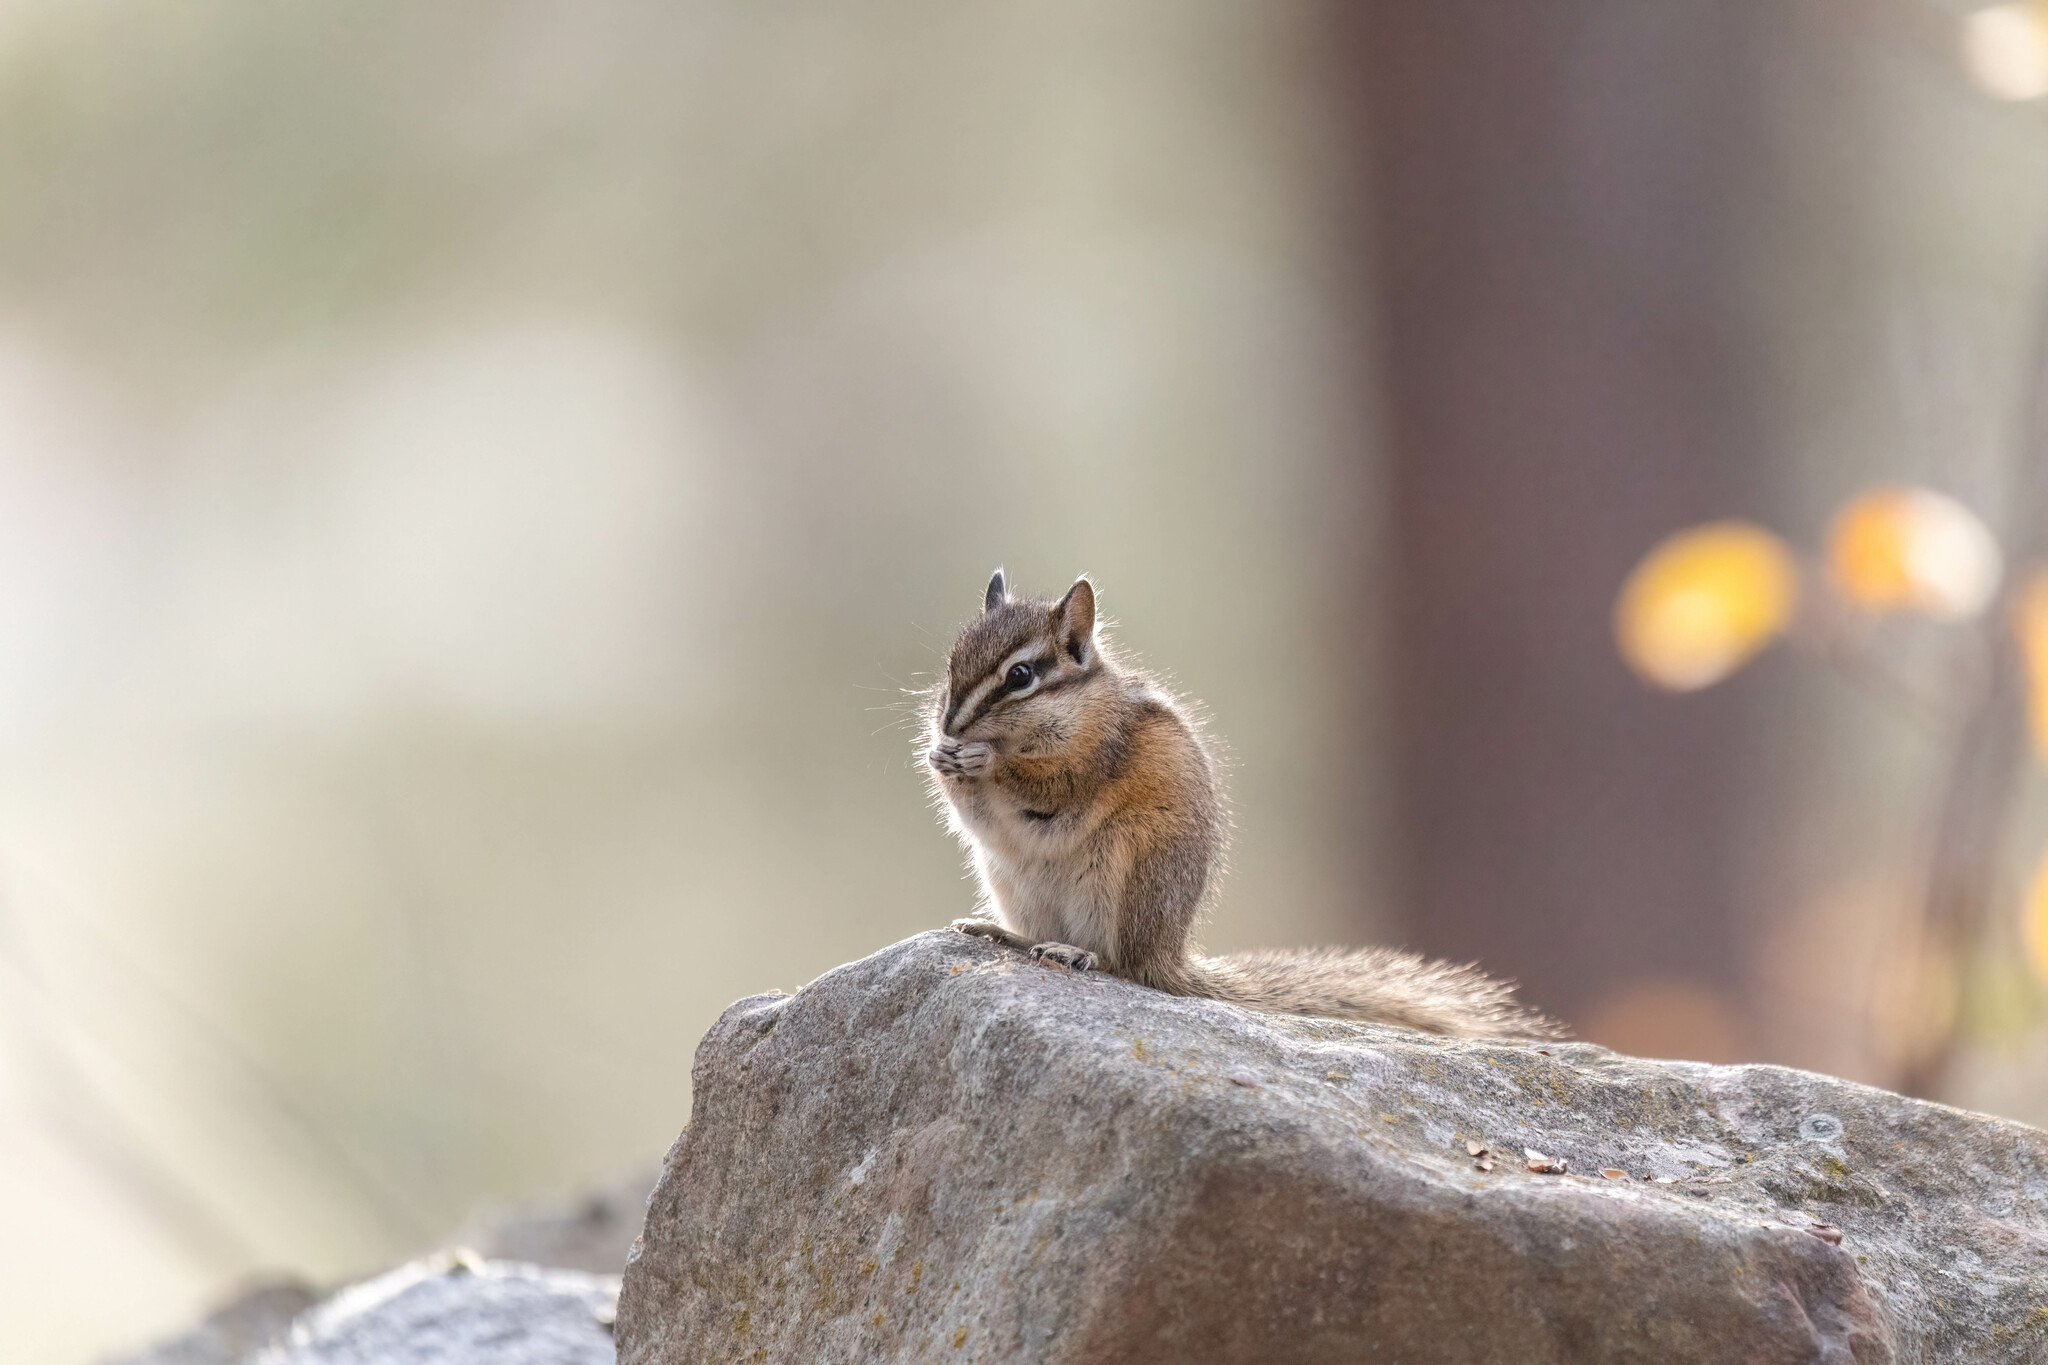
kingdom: Animalia
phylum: Chordata
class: Mammalia
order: Rodentia
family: Sciuridae
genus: Tamias
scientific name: Tamias amoenus
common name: Yellow-pine chipmunk
